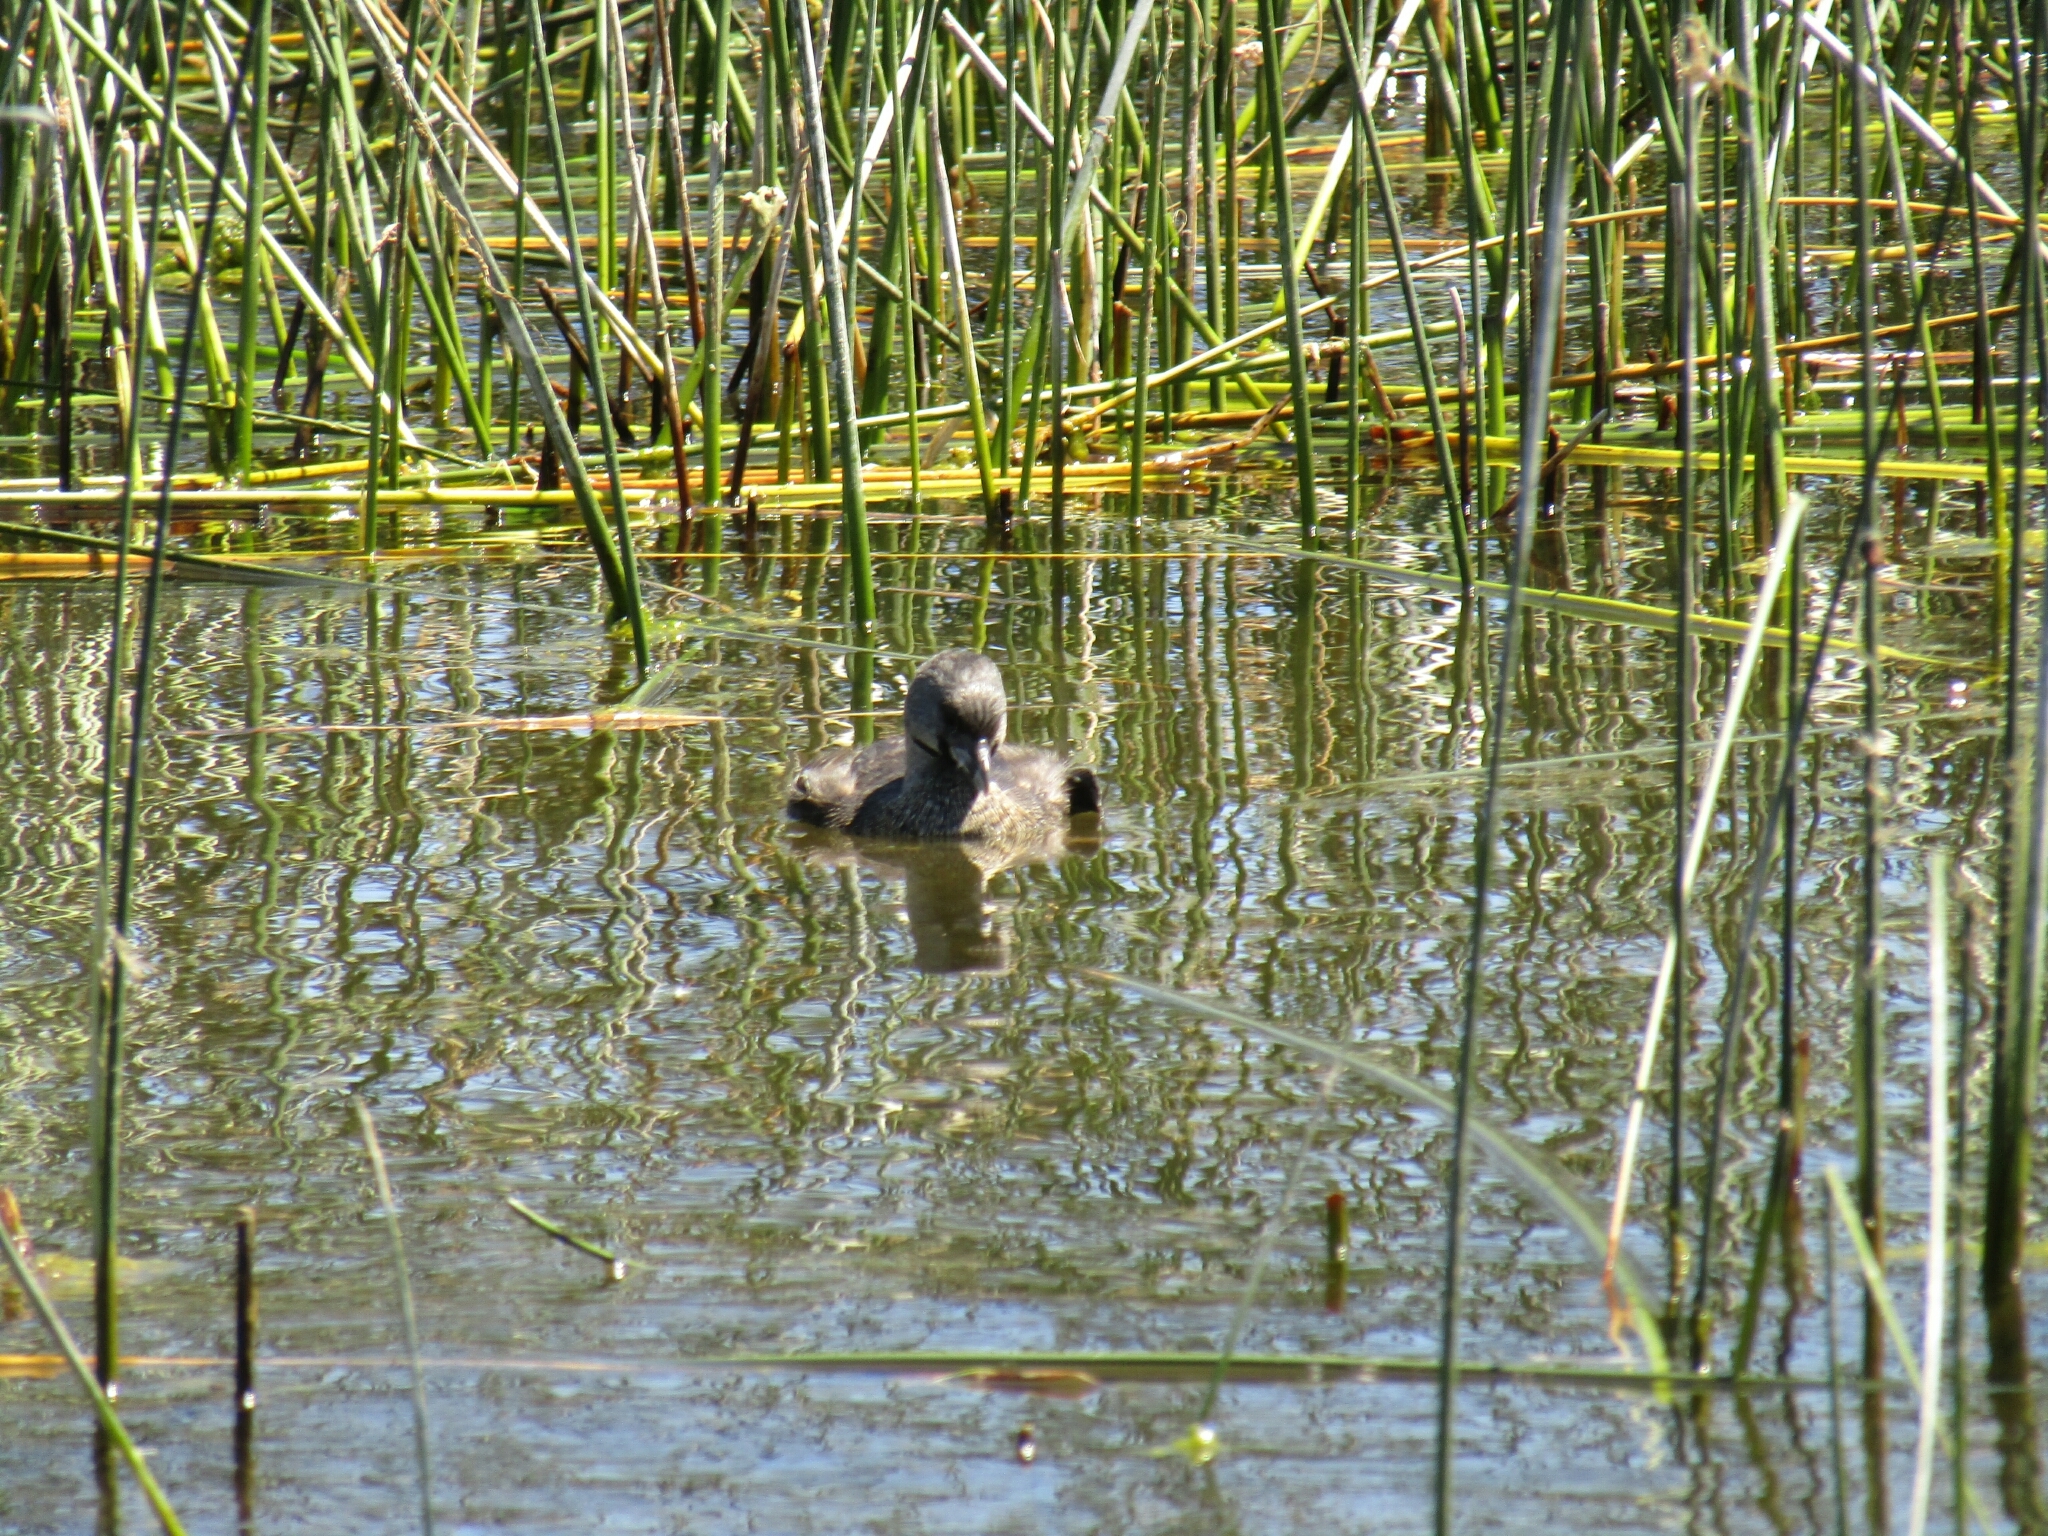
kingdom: Animalia
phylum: Chordata
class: Aves
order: Podicipediformes
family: Podicipedidae
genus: Podilymbus
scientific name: Podilymbus podiceps
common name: Pied-billed grebe
